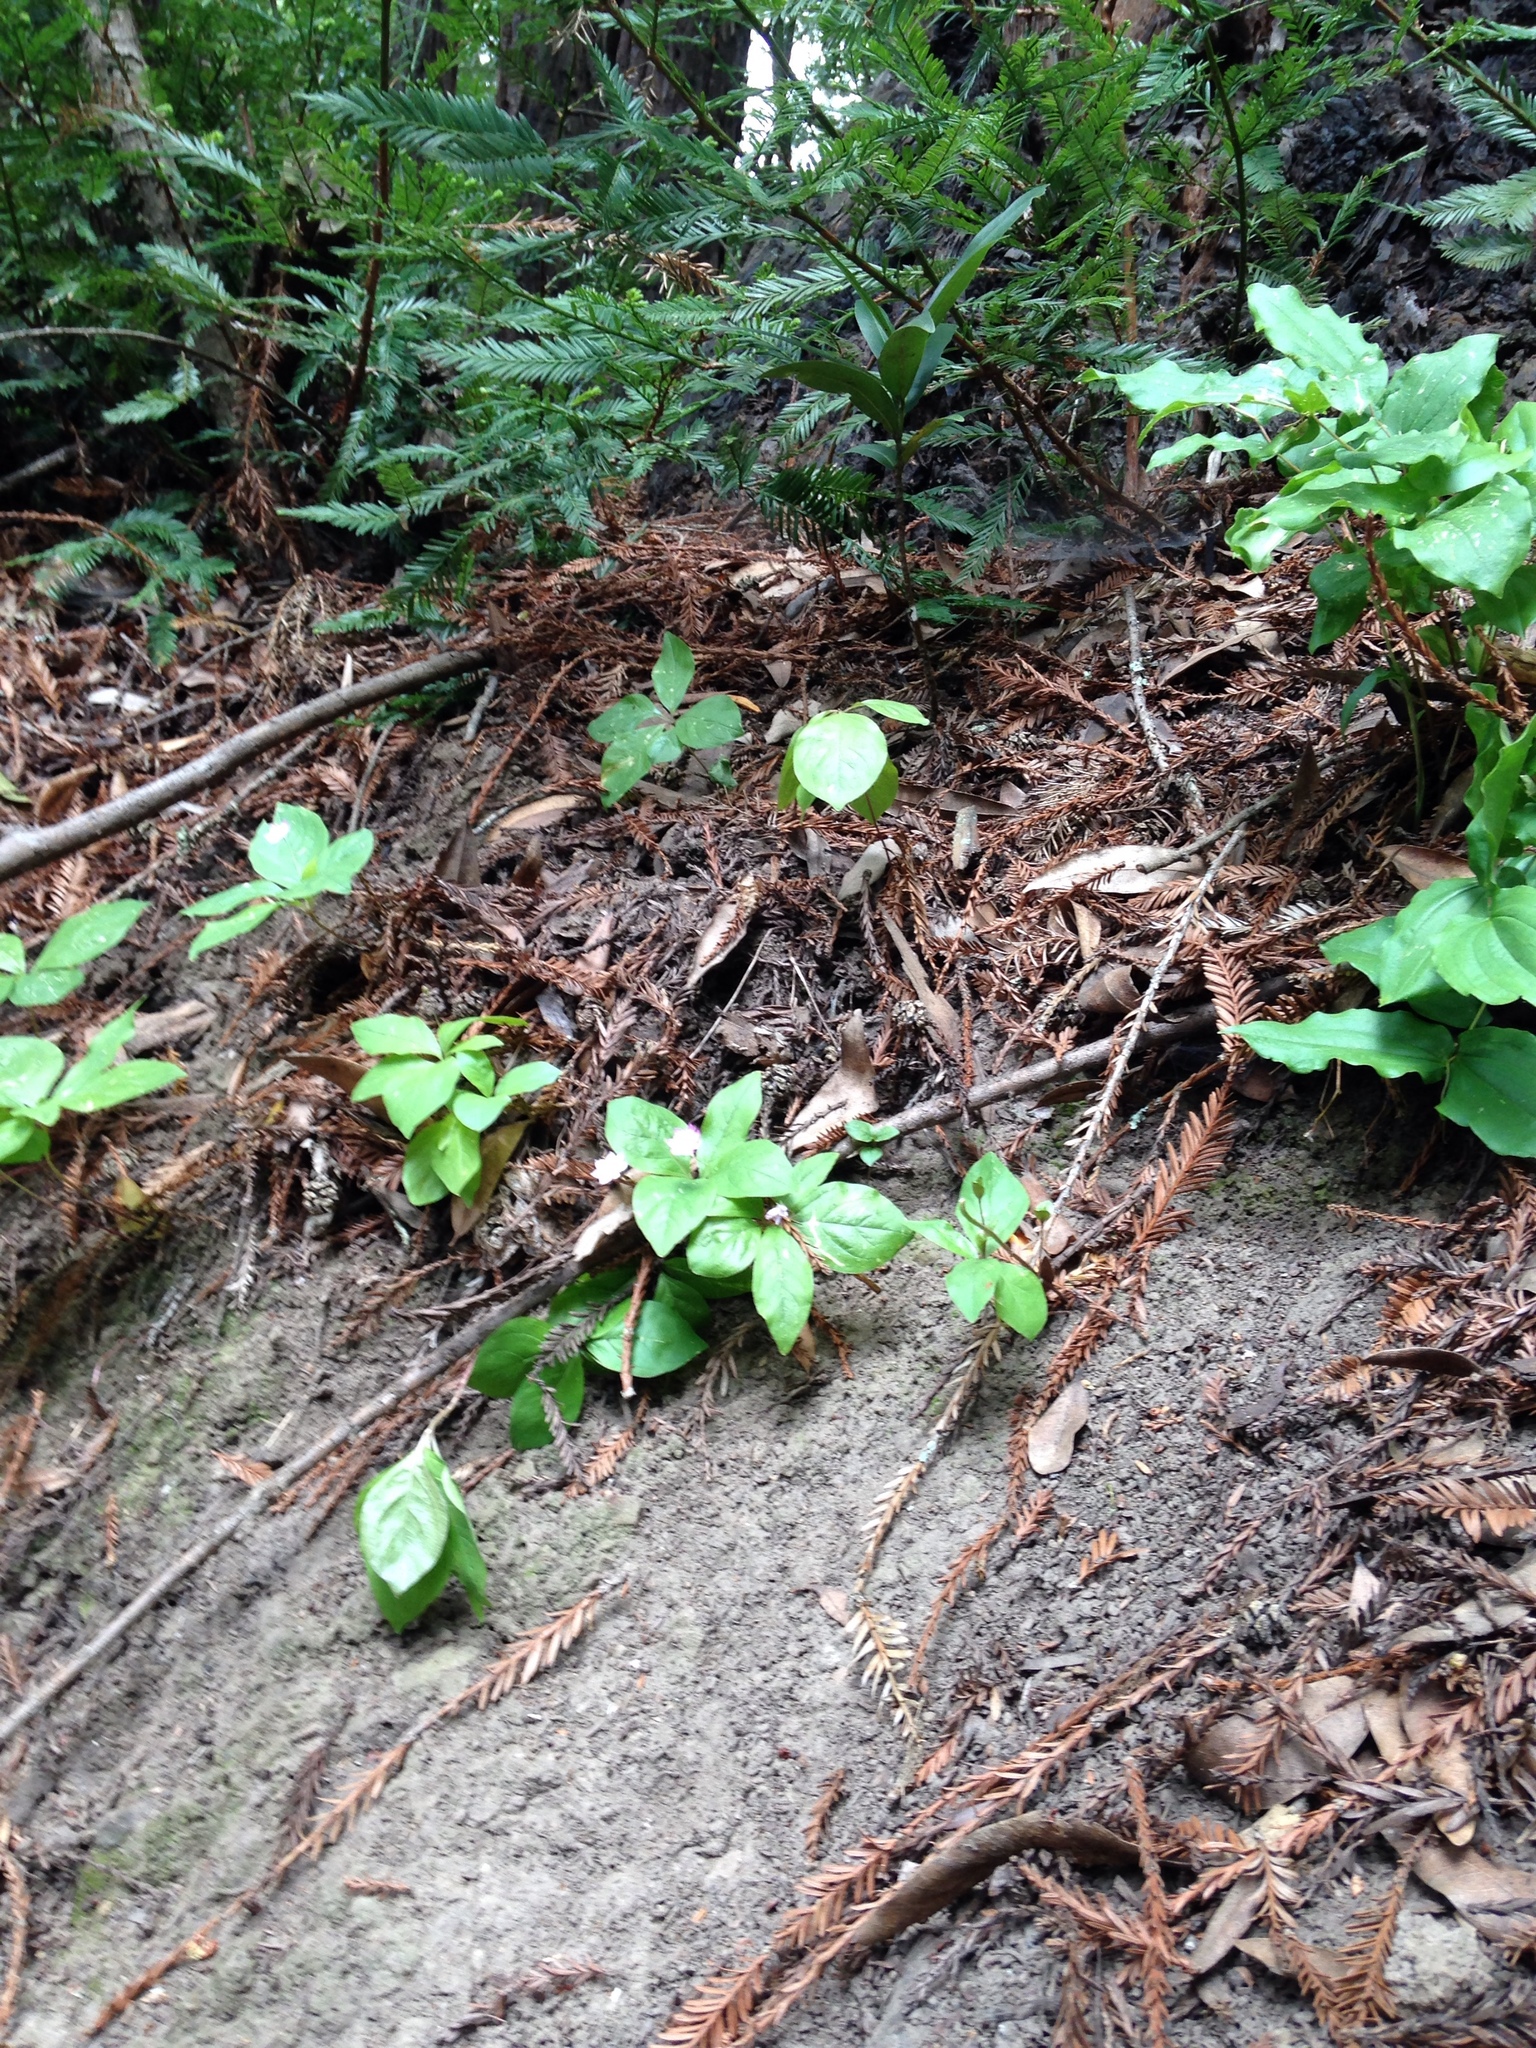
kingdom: Plantae
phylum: Tracheophyta
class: Magnoliopsida
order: Ericales
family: Primulaceae
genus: Lysimachia
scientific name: Lysimachia latifolia
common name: Pacific starflower
